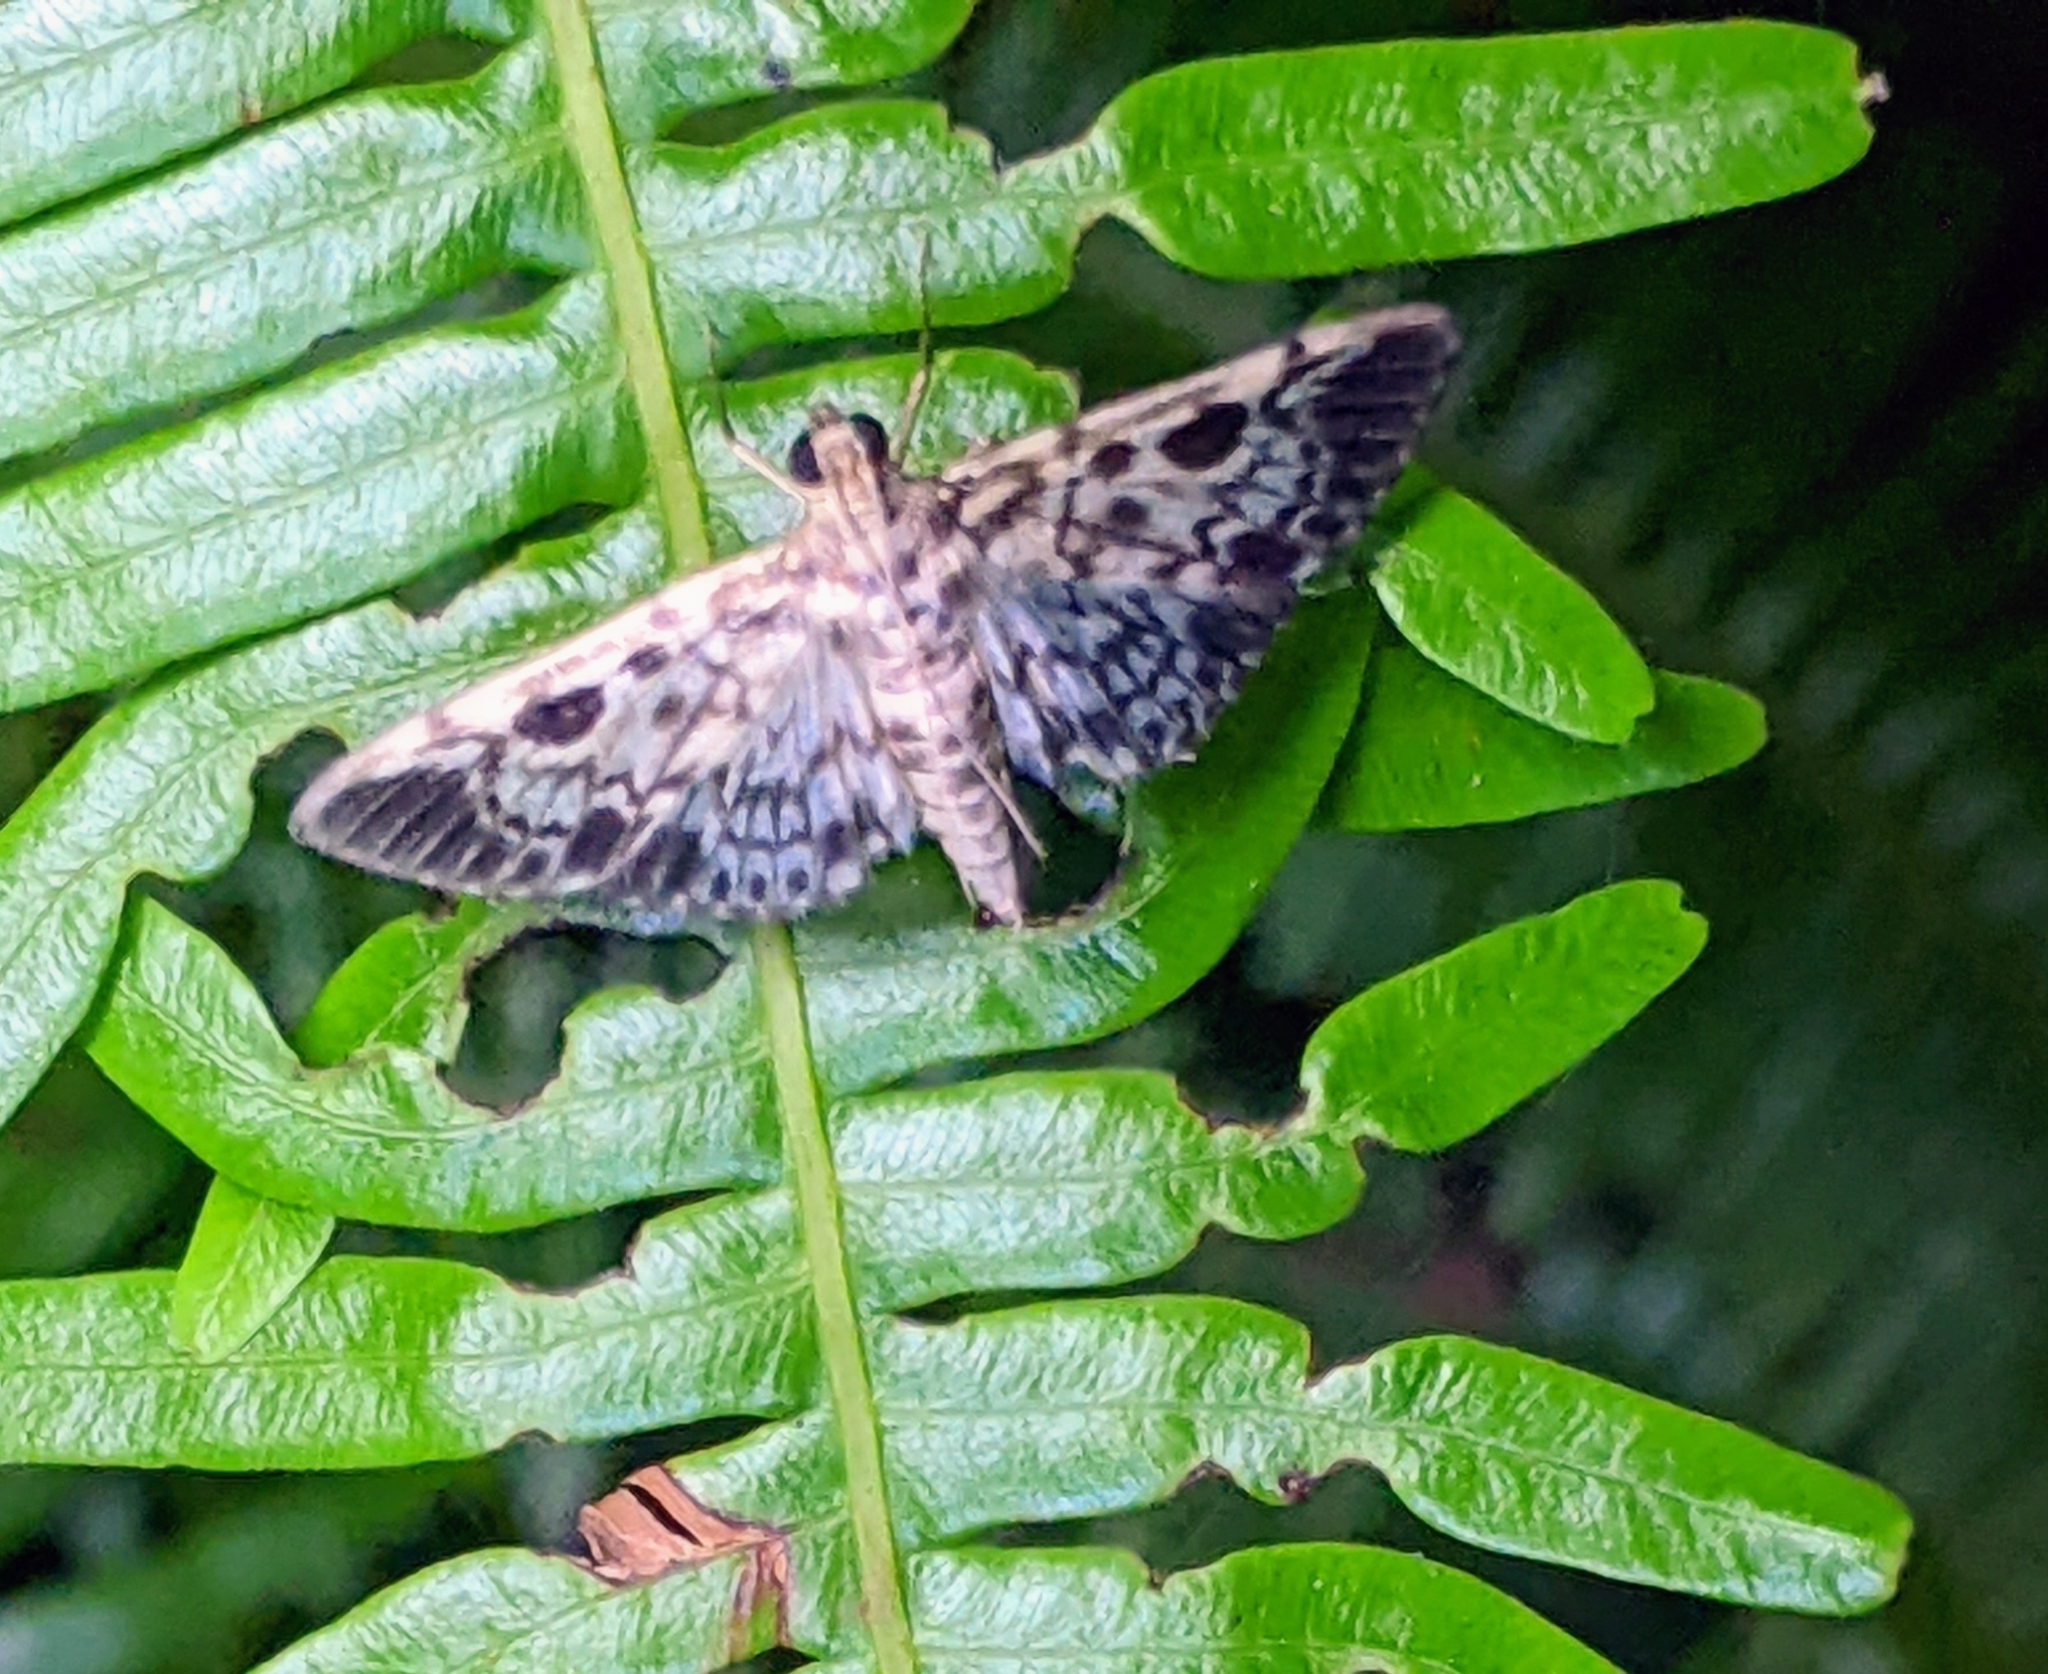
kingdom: Animalia
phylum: Arthropoda
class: Insecta
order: Lepidoptera
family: Crambidae
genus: Rhimphaliodes
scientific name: Rhimphaliodes macrostigma
